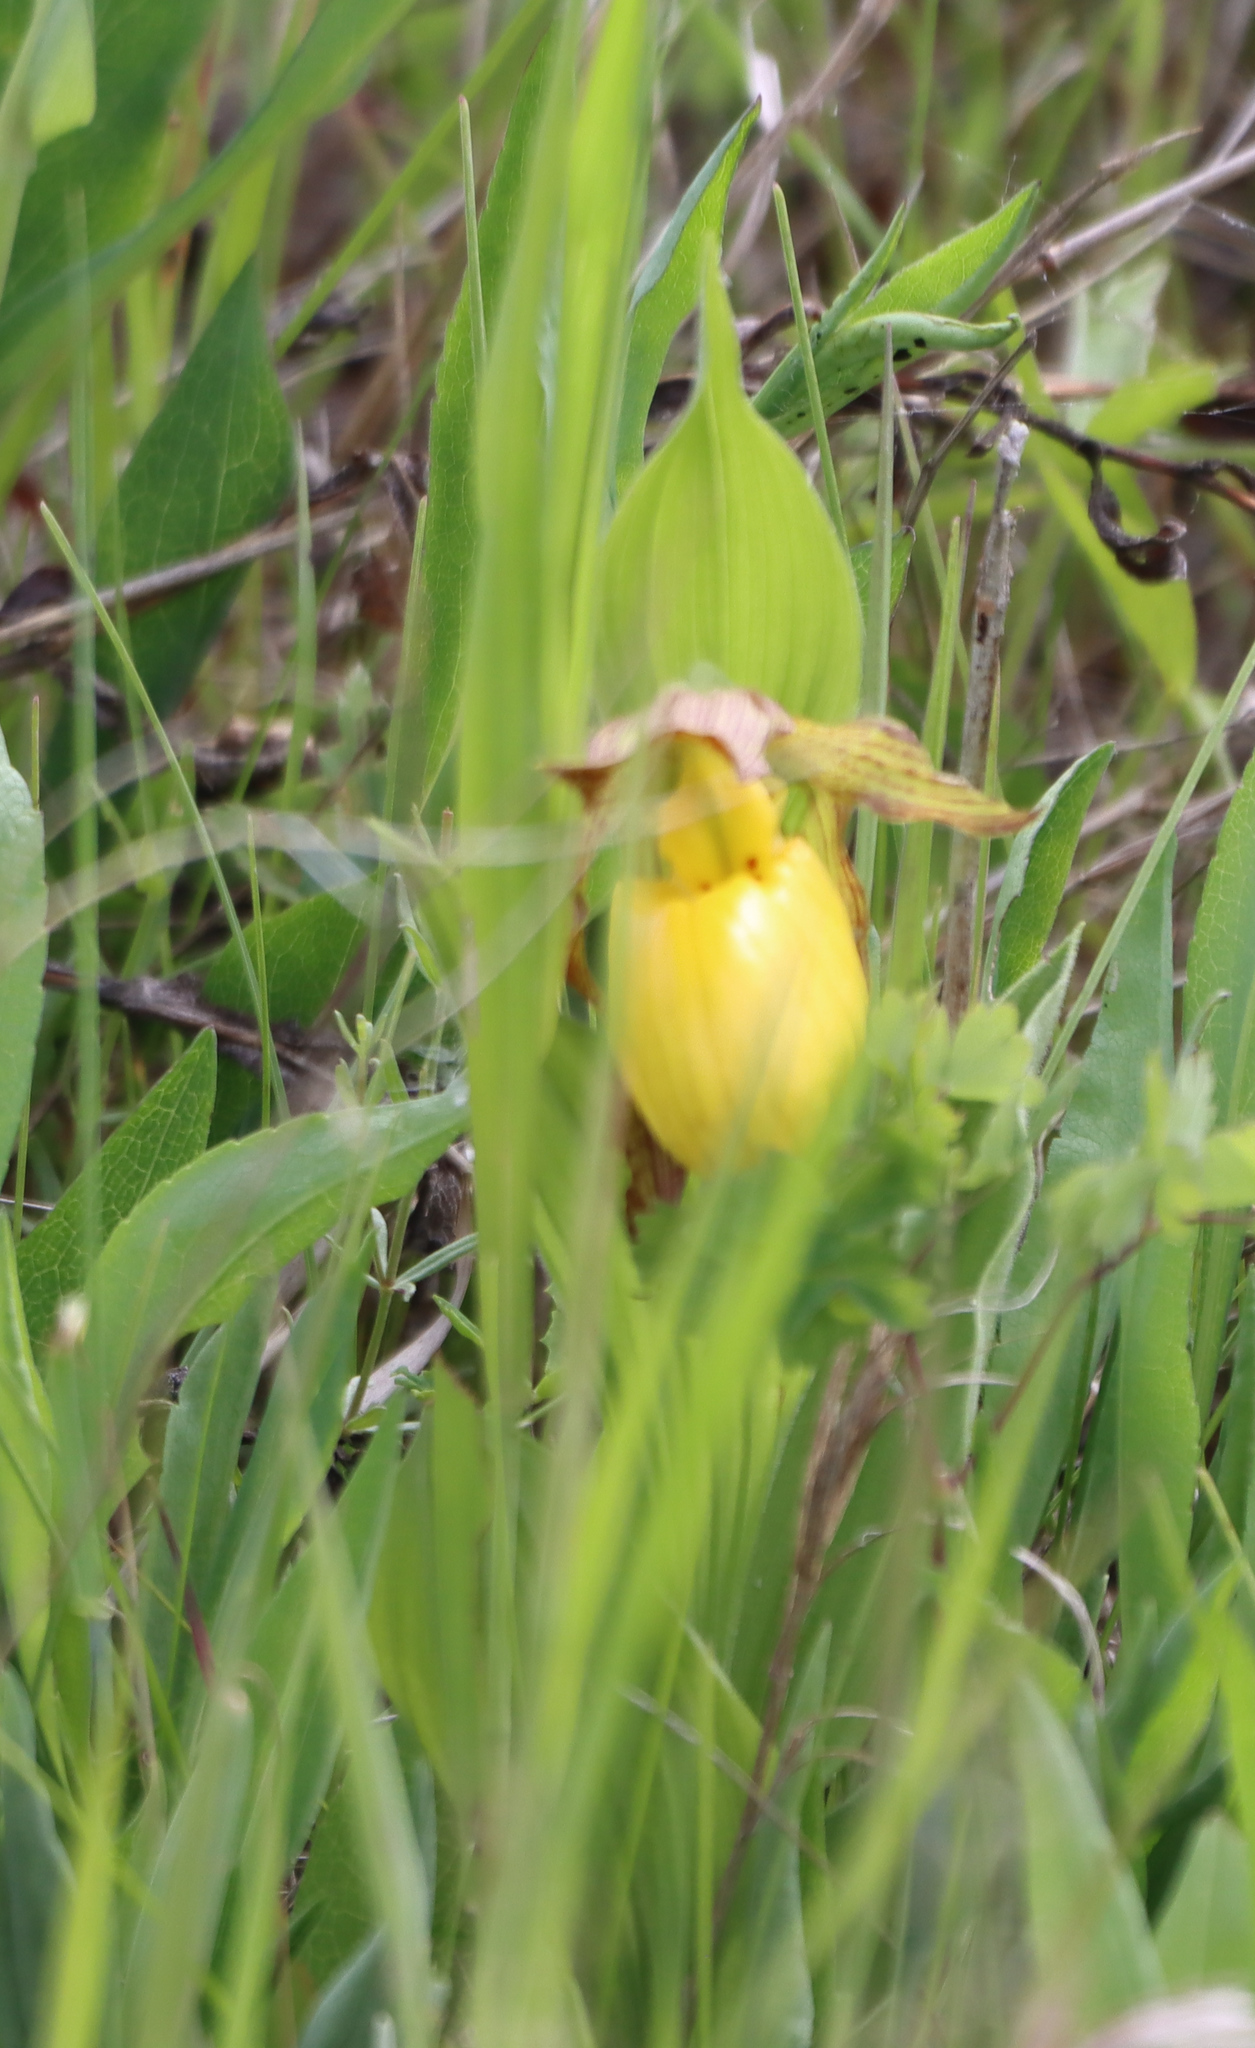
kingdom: Plantae
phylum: Tracheophyta
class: Liliopsida
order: Asparagales
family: Orchidaceae
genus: Cypripedium
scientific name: Cypripedium parviflorum
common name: American yellow lady's-slipper
